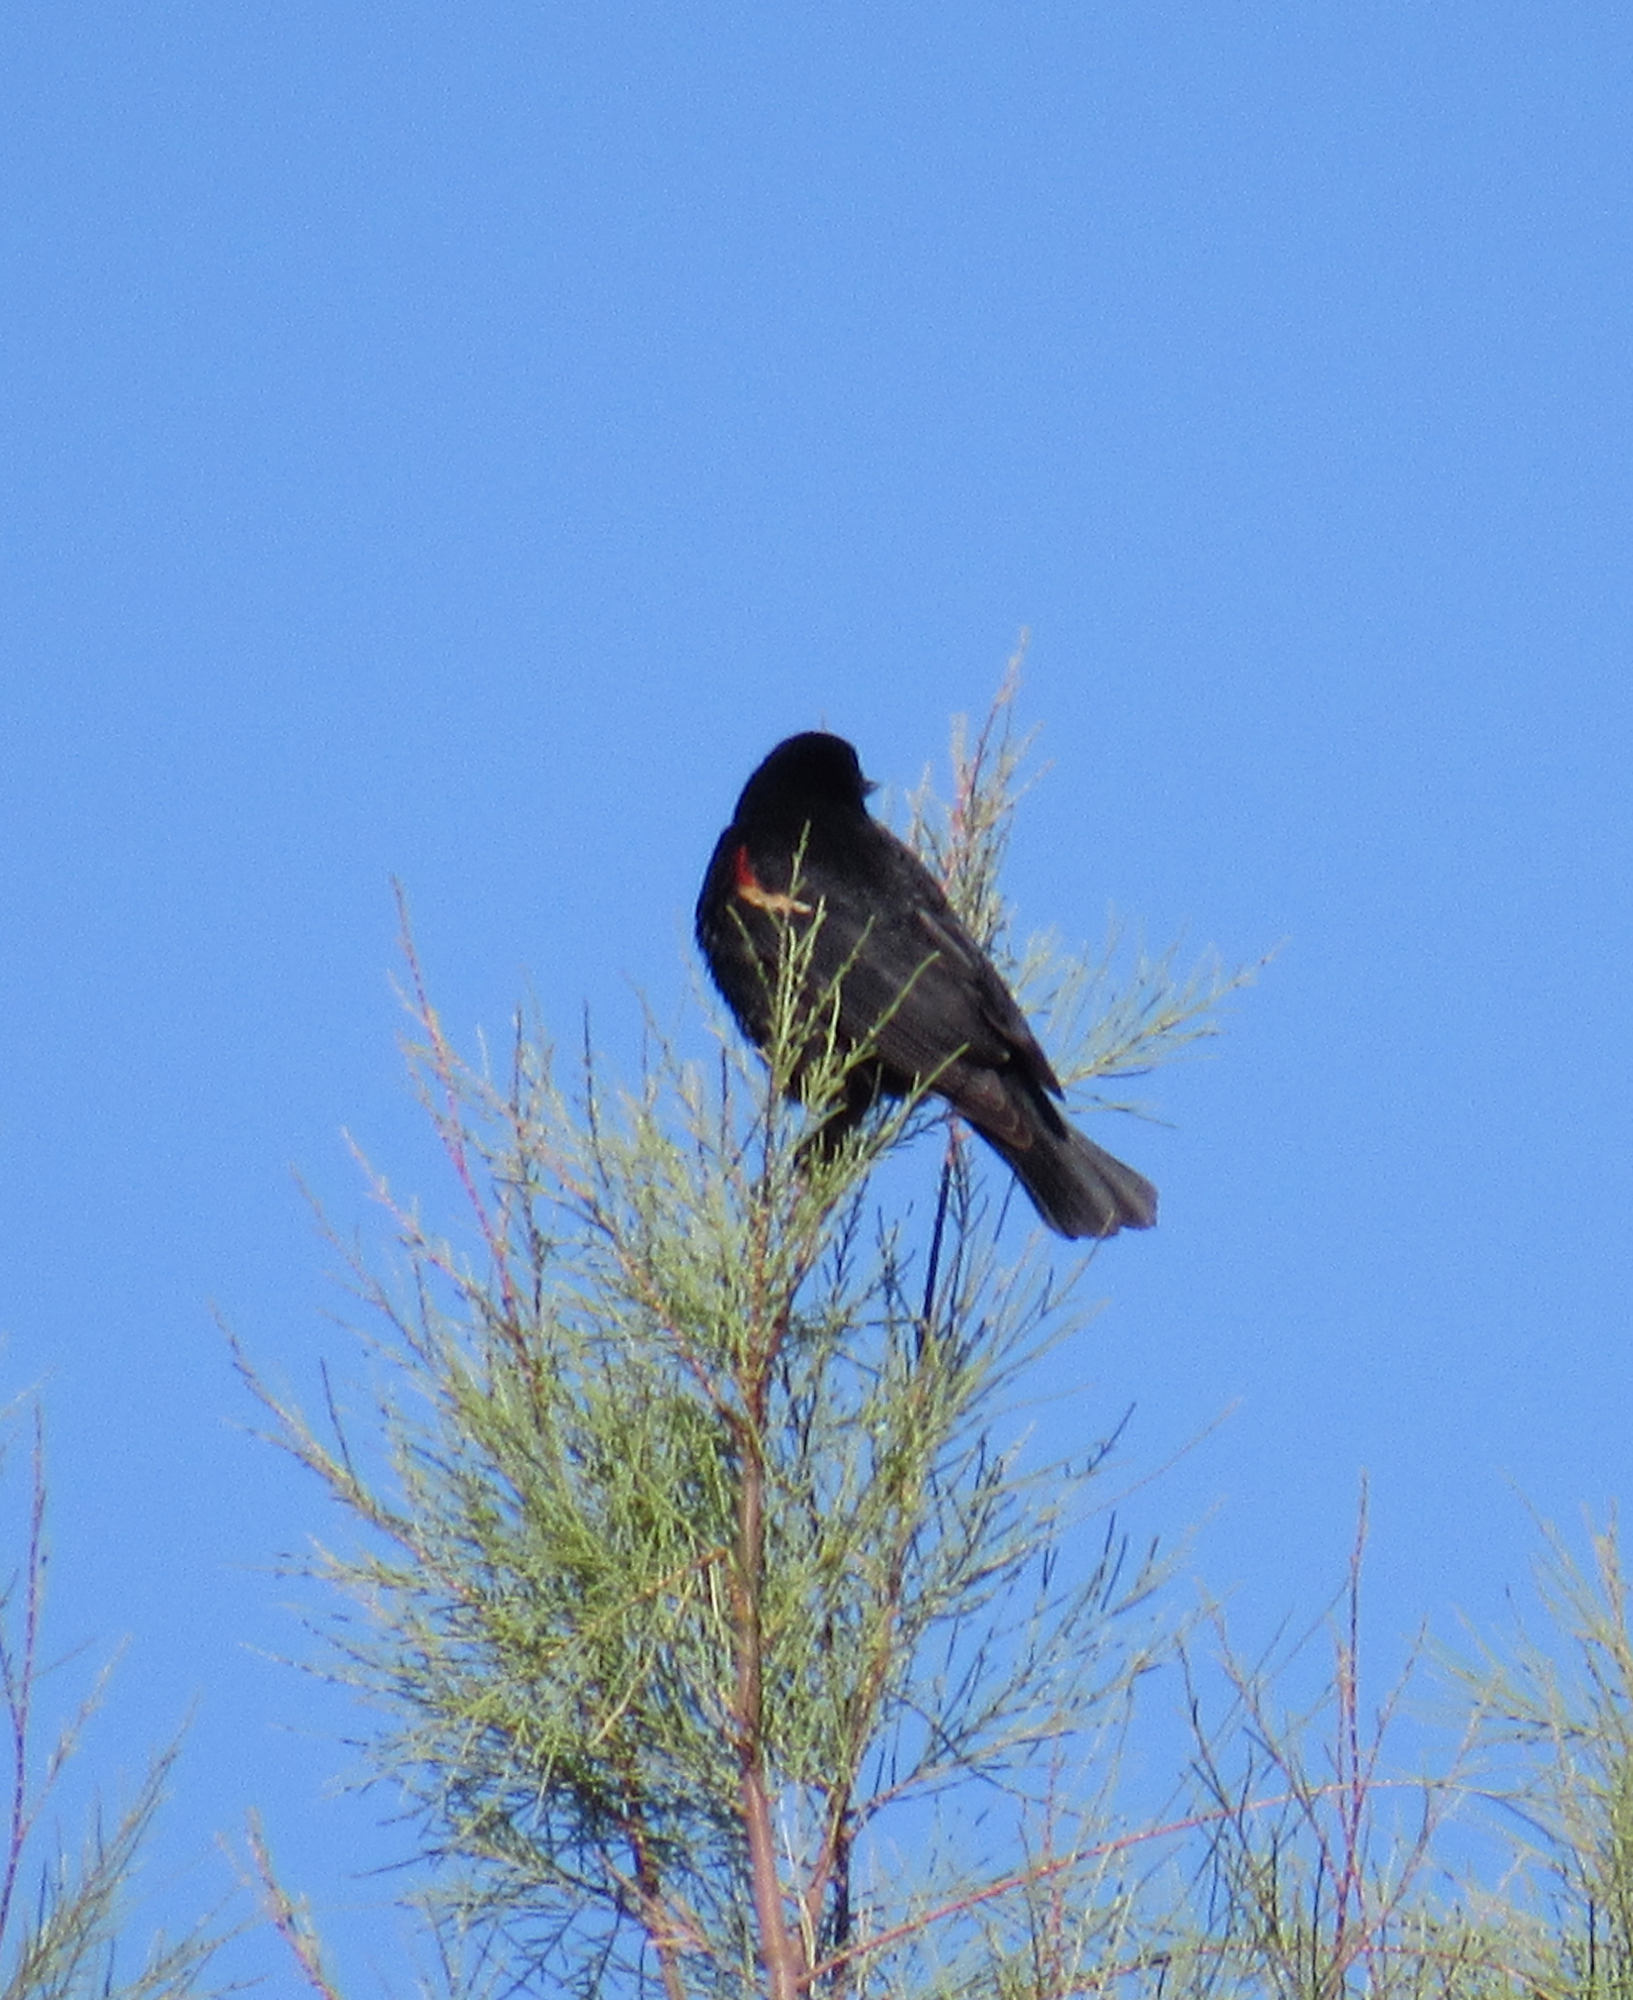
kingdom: Animalia
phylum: Chordata
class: Aves
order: Passeriformes
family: Icteridae
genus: Agelaius
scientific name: Agelaius phoeniceus
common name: Red-winged blackbird
